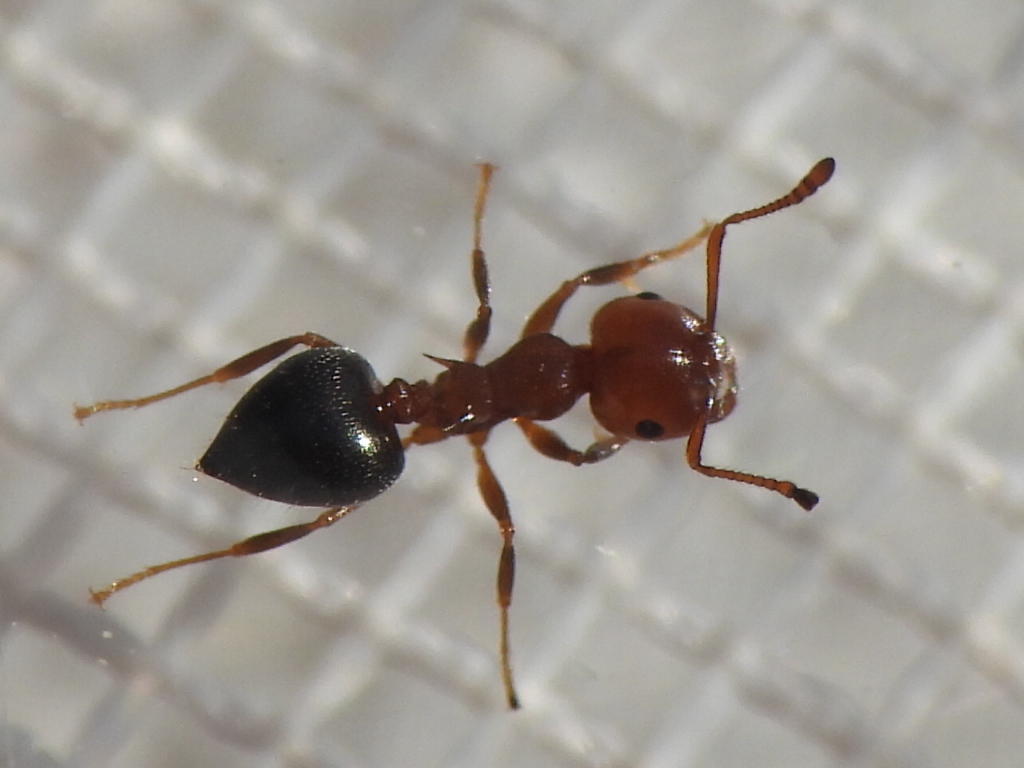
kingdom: Animalia
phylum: Arthropoda
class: Insecta
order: Hymenoptera
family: Formicidae
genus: Crematogaster
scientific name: Crematogaster laeviuscula
